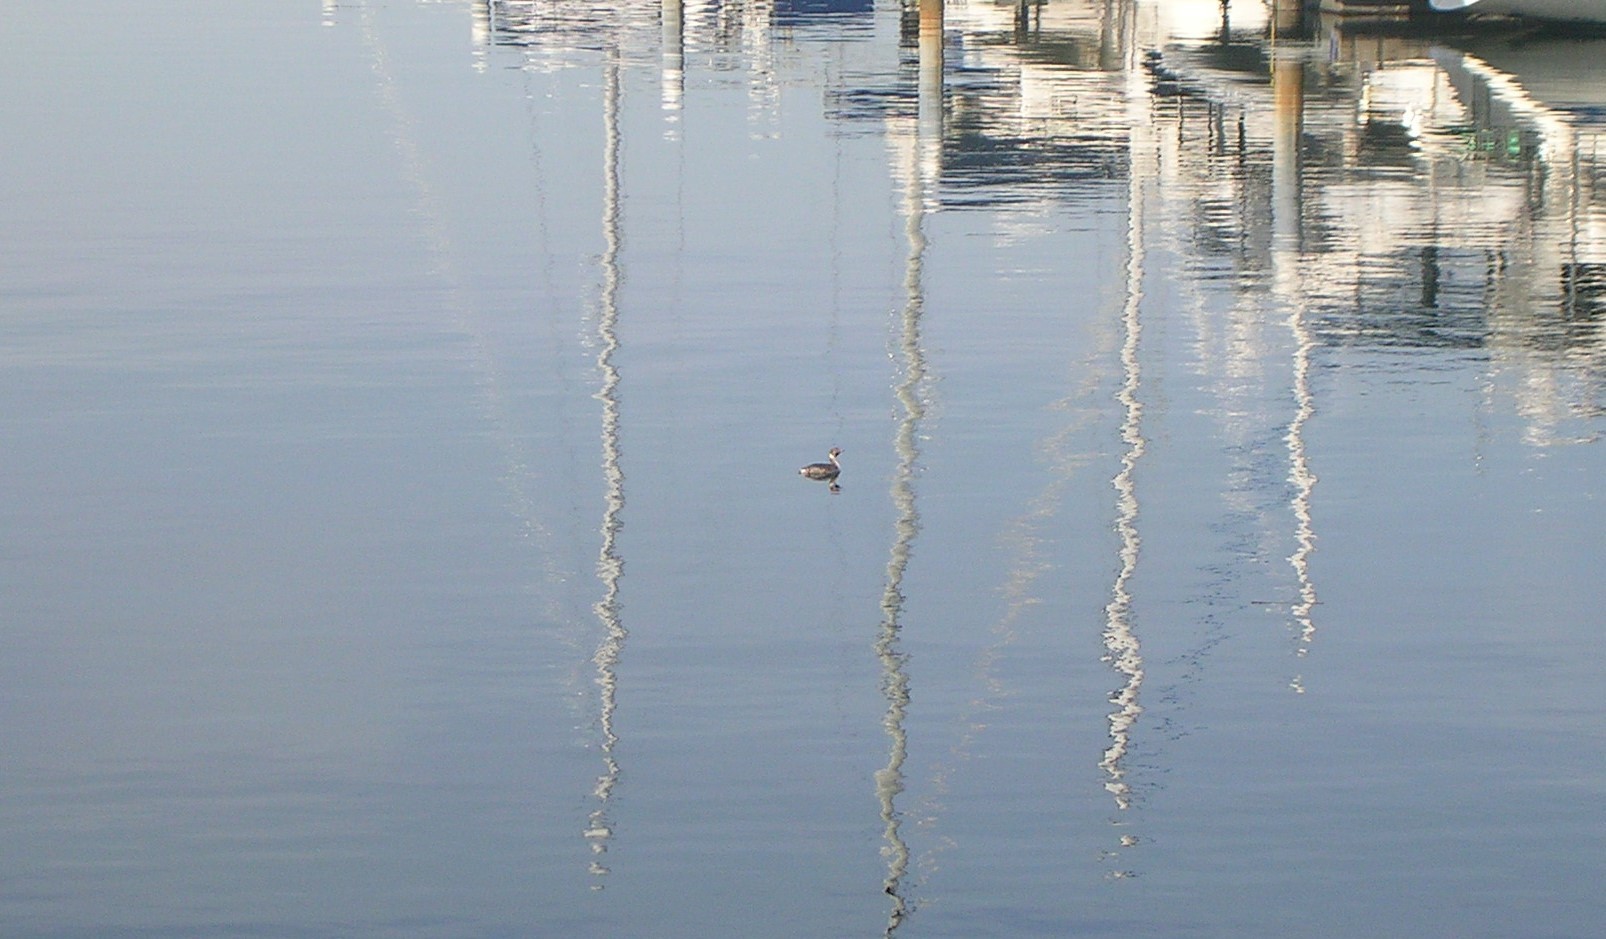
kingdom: Animalia
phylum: Chordata
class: Aves
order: Podicipediformes
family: Podicipedidae
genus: Podiceps
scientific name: Podiceps auritus
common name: Horned grebe
